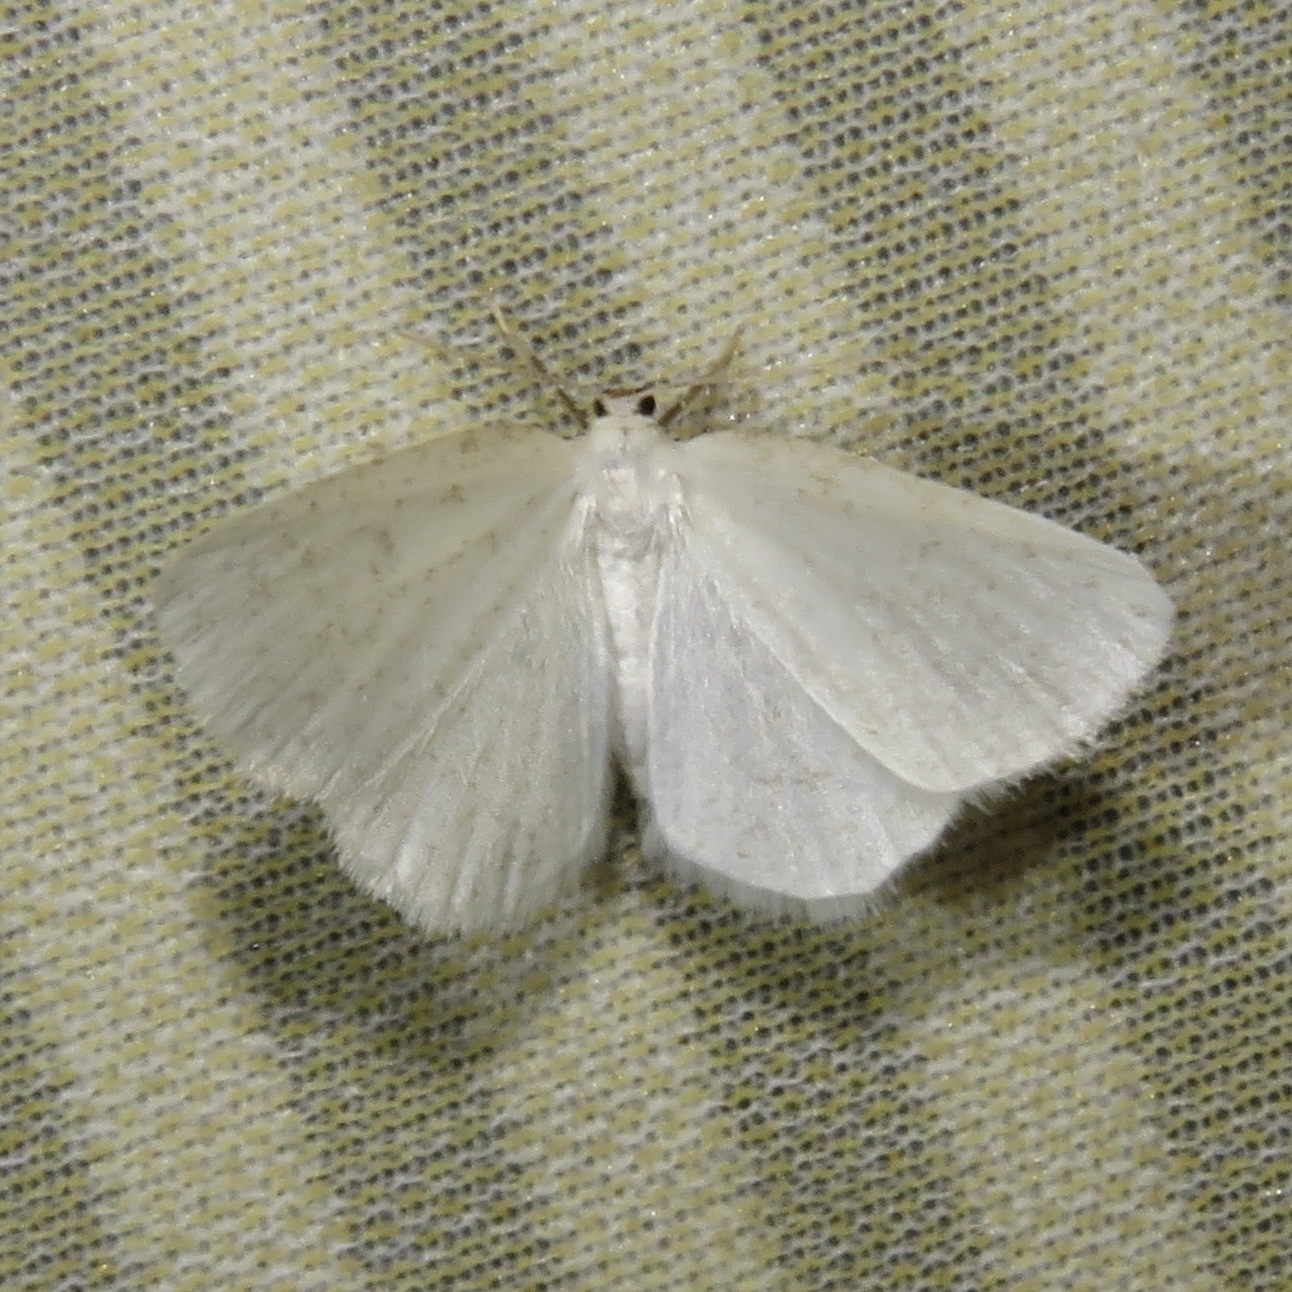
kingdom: Animalia
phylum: Arthropoda
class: Insecta
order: Lepidoptera
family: Geometridae
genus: Protitame
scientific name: Protitame virginalis
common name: Virgin moth
